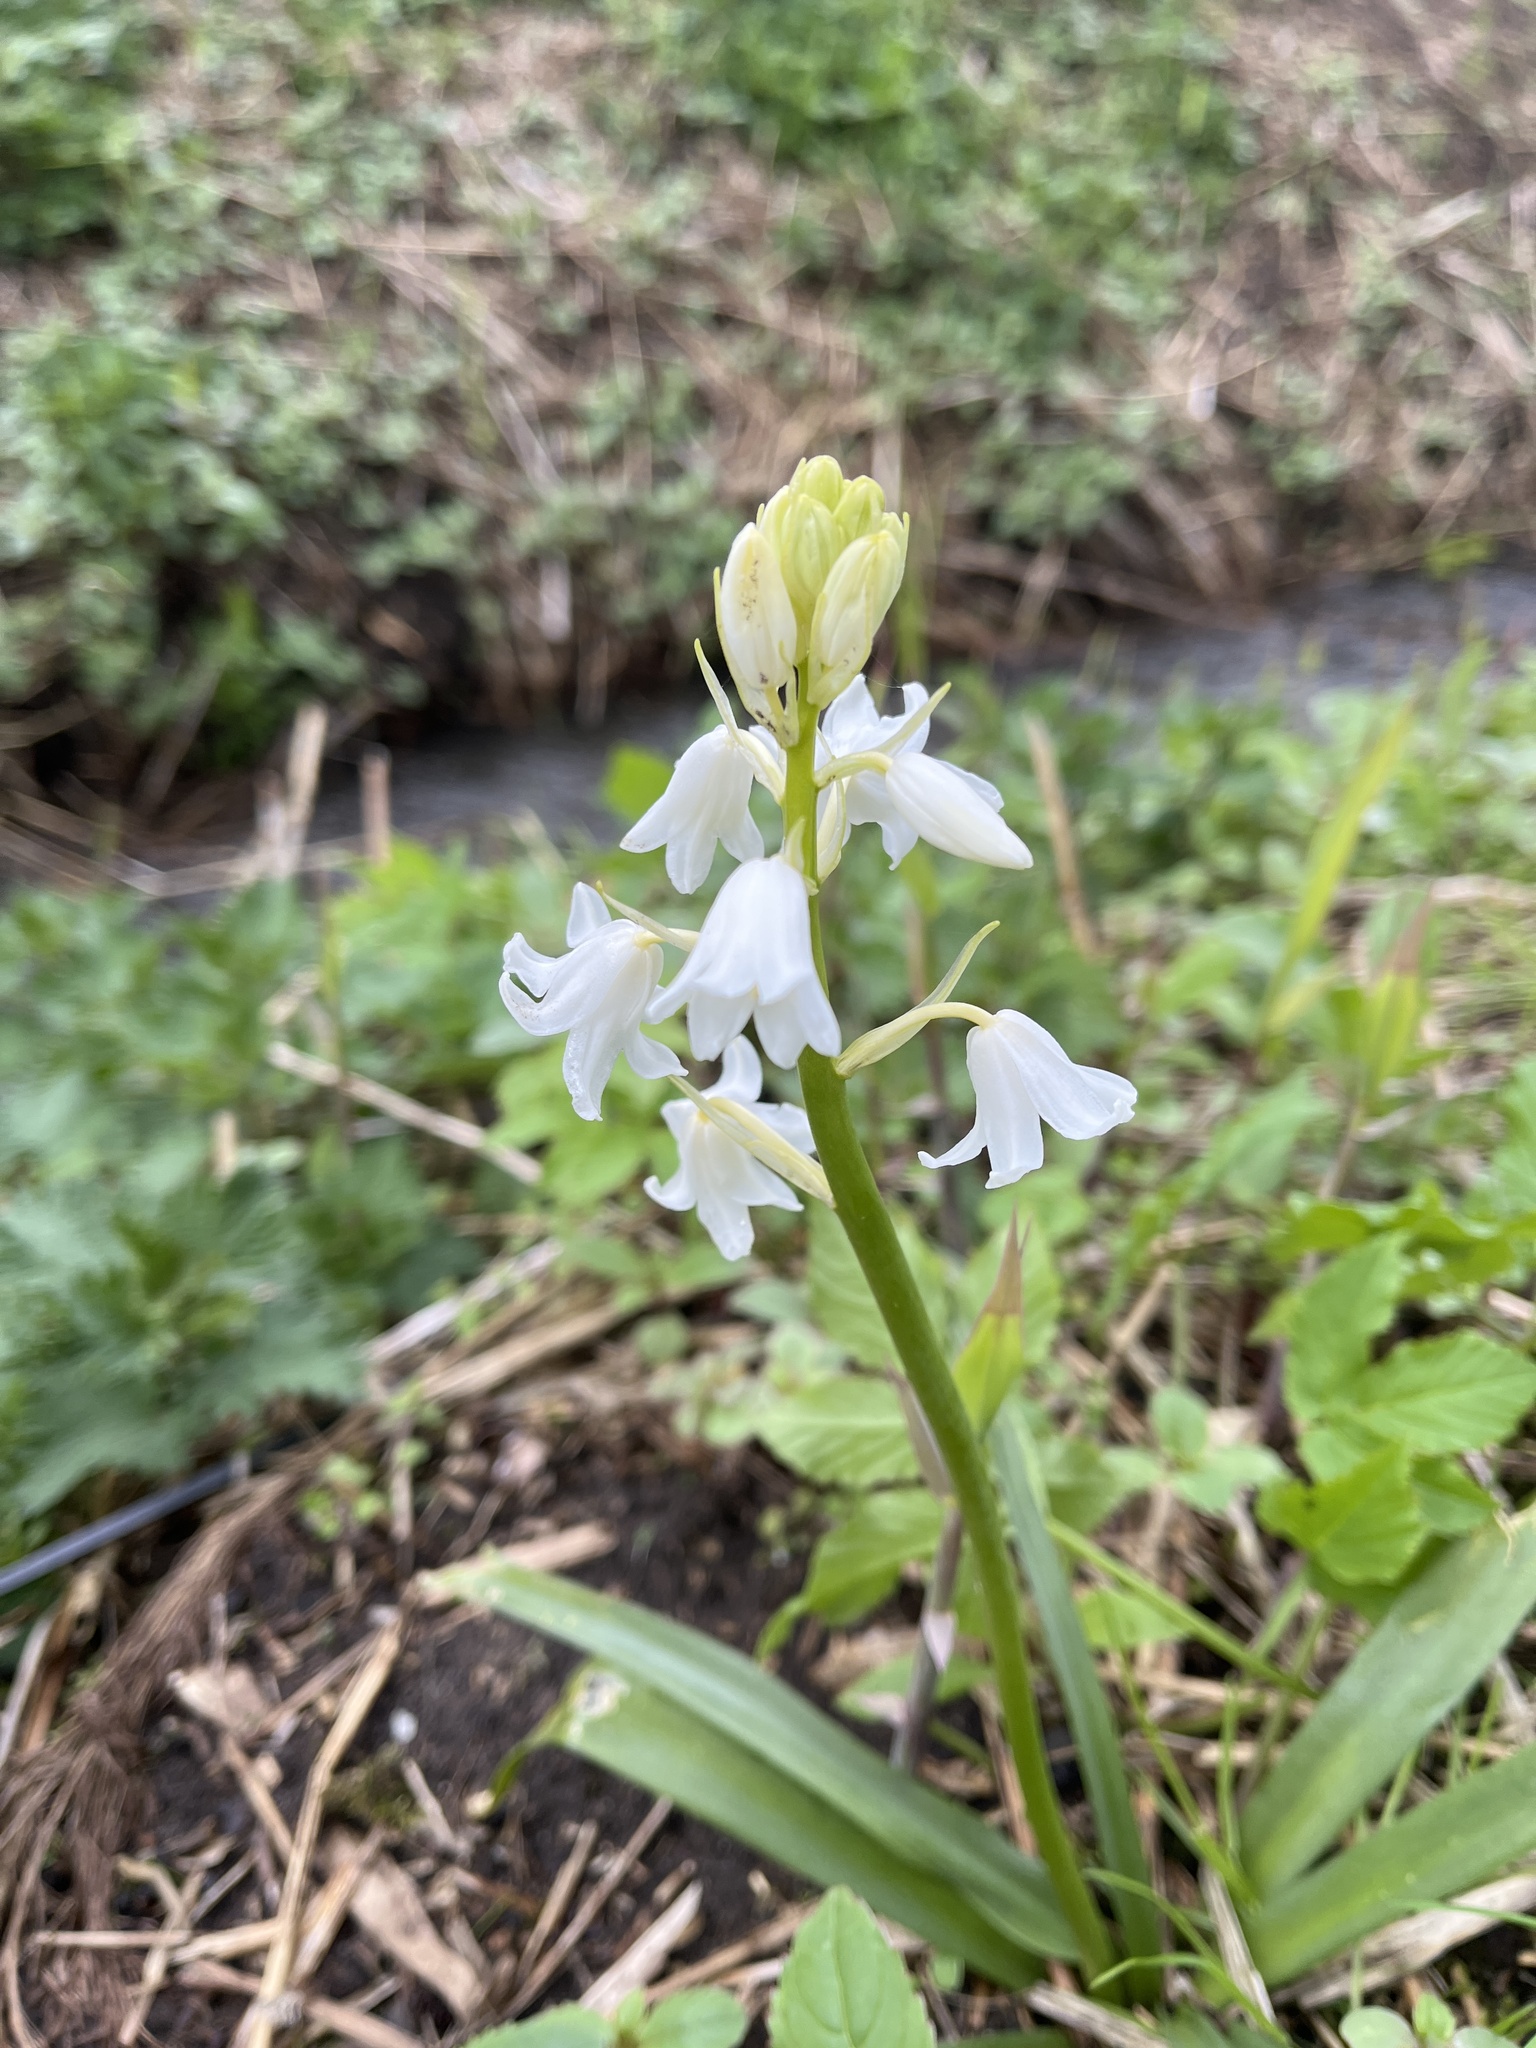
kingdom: Plantae
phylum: Tracheophyta
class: Liliopsida
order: Asparagales
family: Asparagaceae
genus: Hyacinthoides
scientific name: Hyacinthoides massartiana
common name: Hyacinthoides
